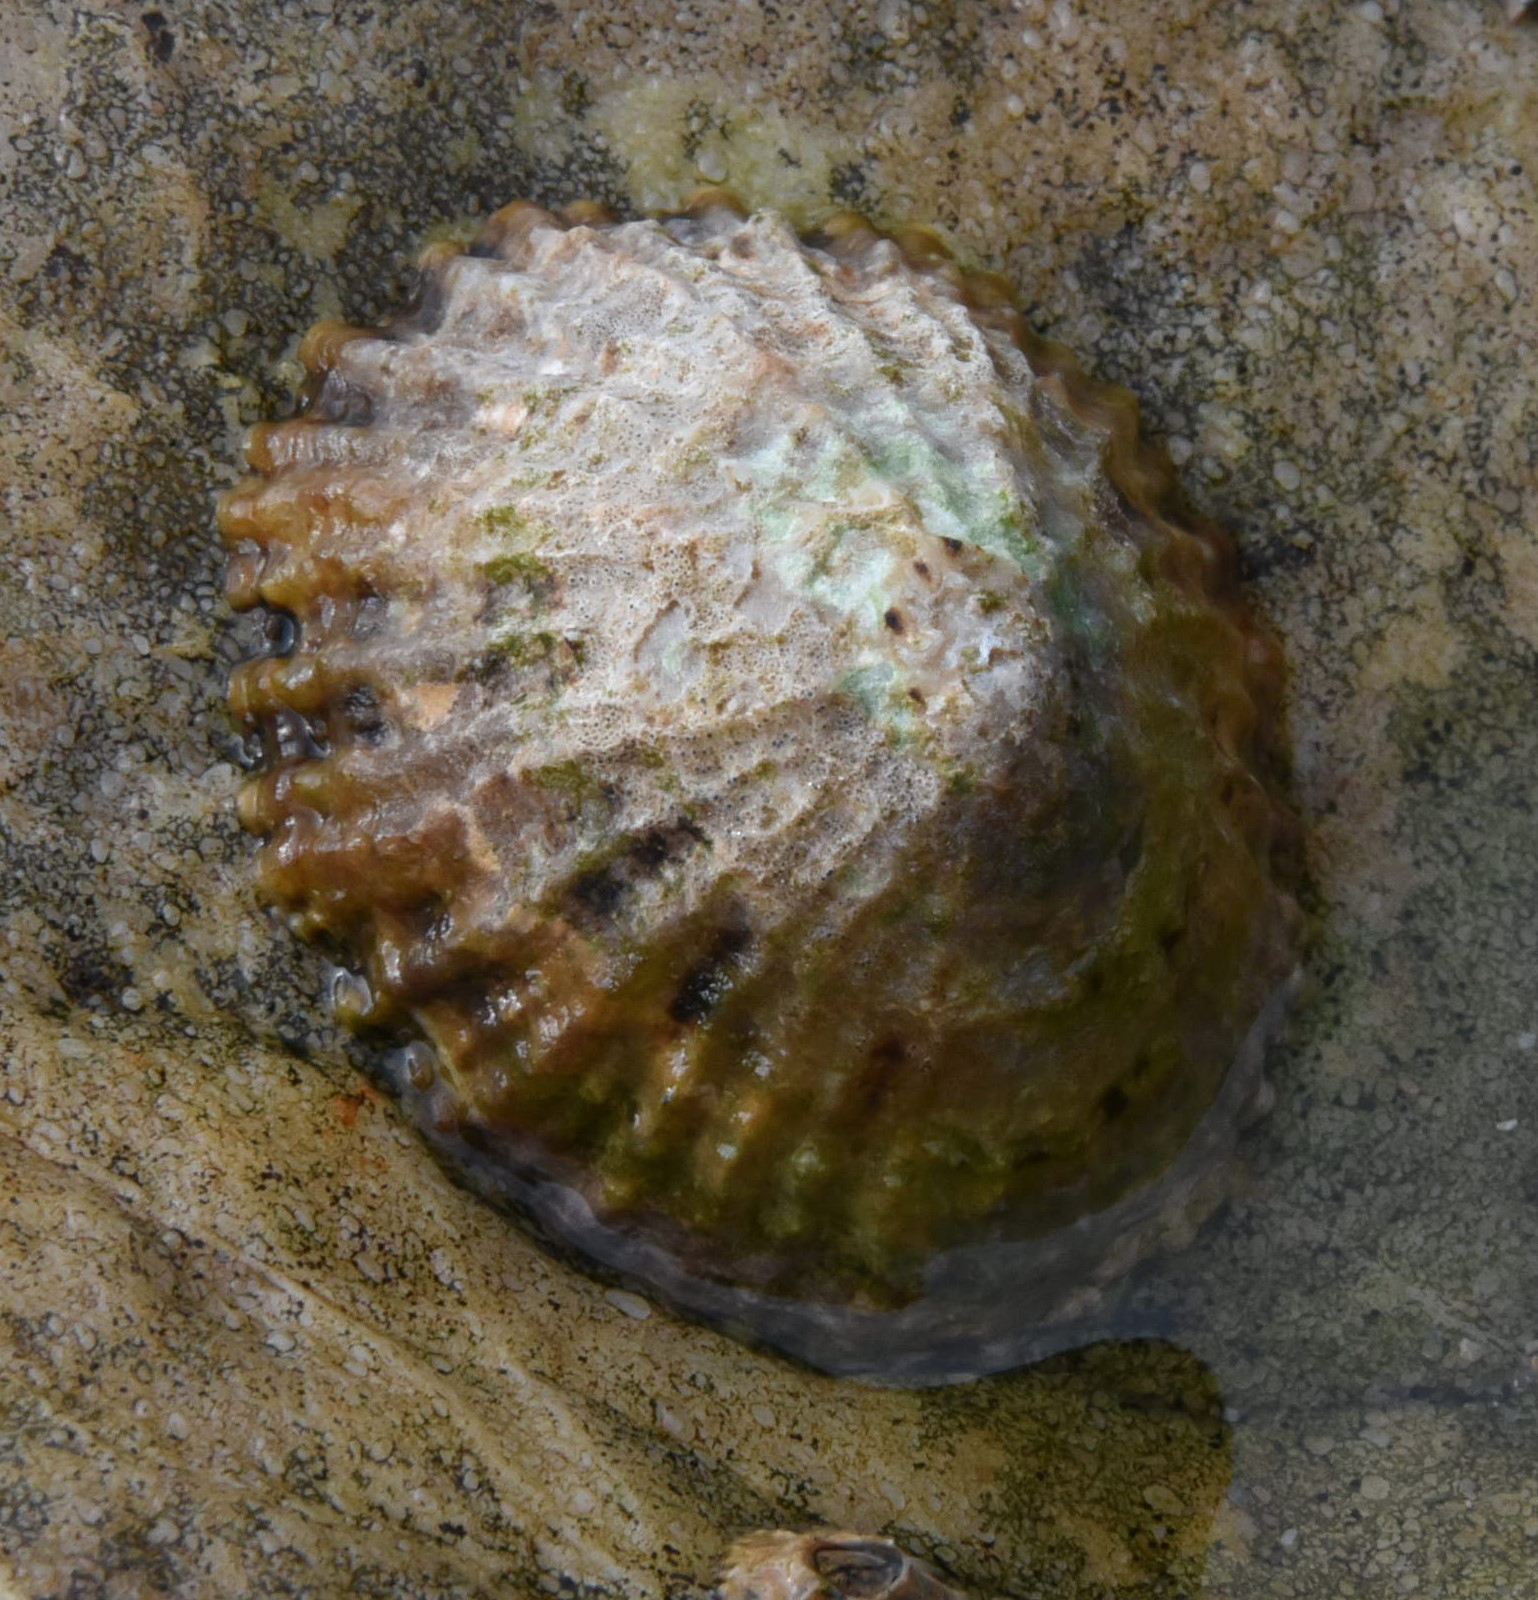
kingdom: Animalia
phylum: Mollusca
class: Gastropoda
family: Patellidae
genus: Patella
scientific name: Patella vulgata
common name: Common limpet
